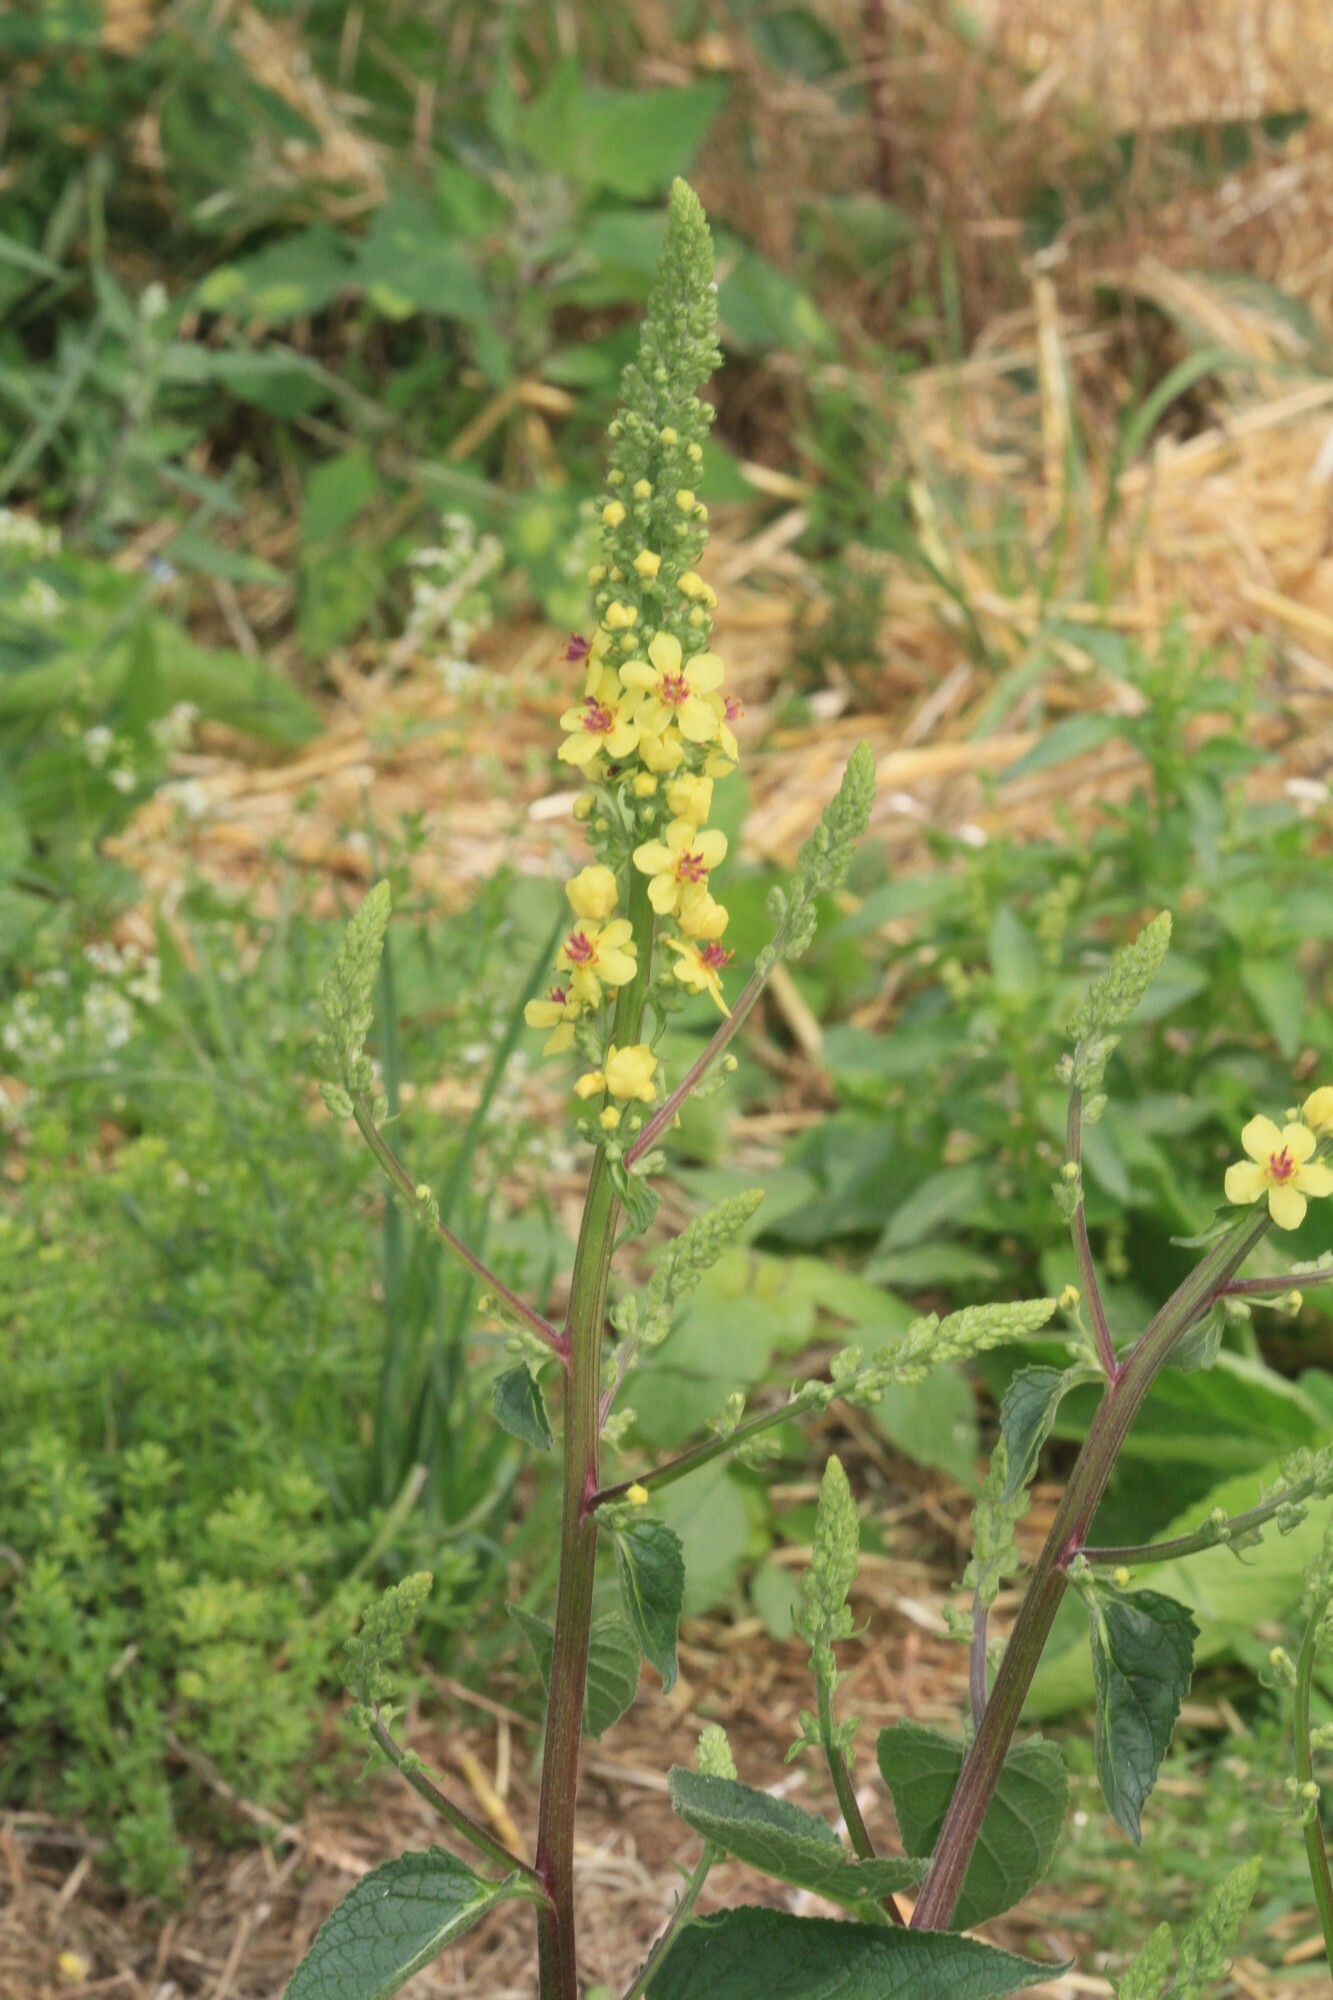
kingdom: Plantae
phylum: Tracheophyta
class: Magnoliopsida
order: Lamiales
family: Scrophulariaceae
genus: Verbascum
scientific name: Verbascum nigrum
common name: Dark mullein
